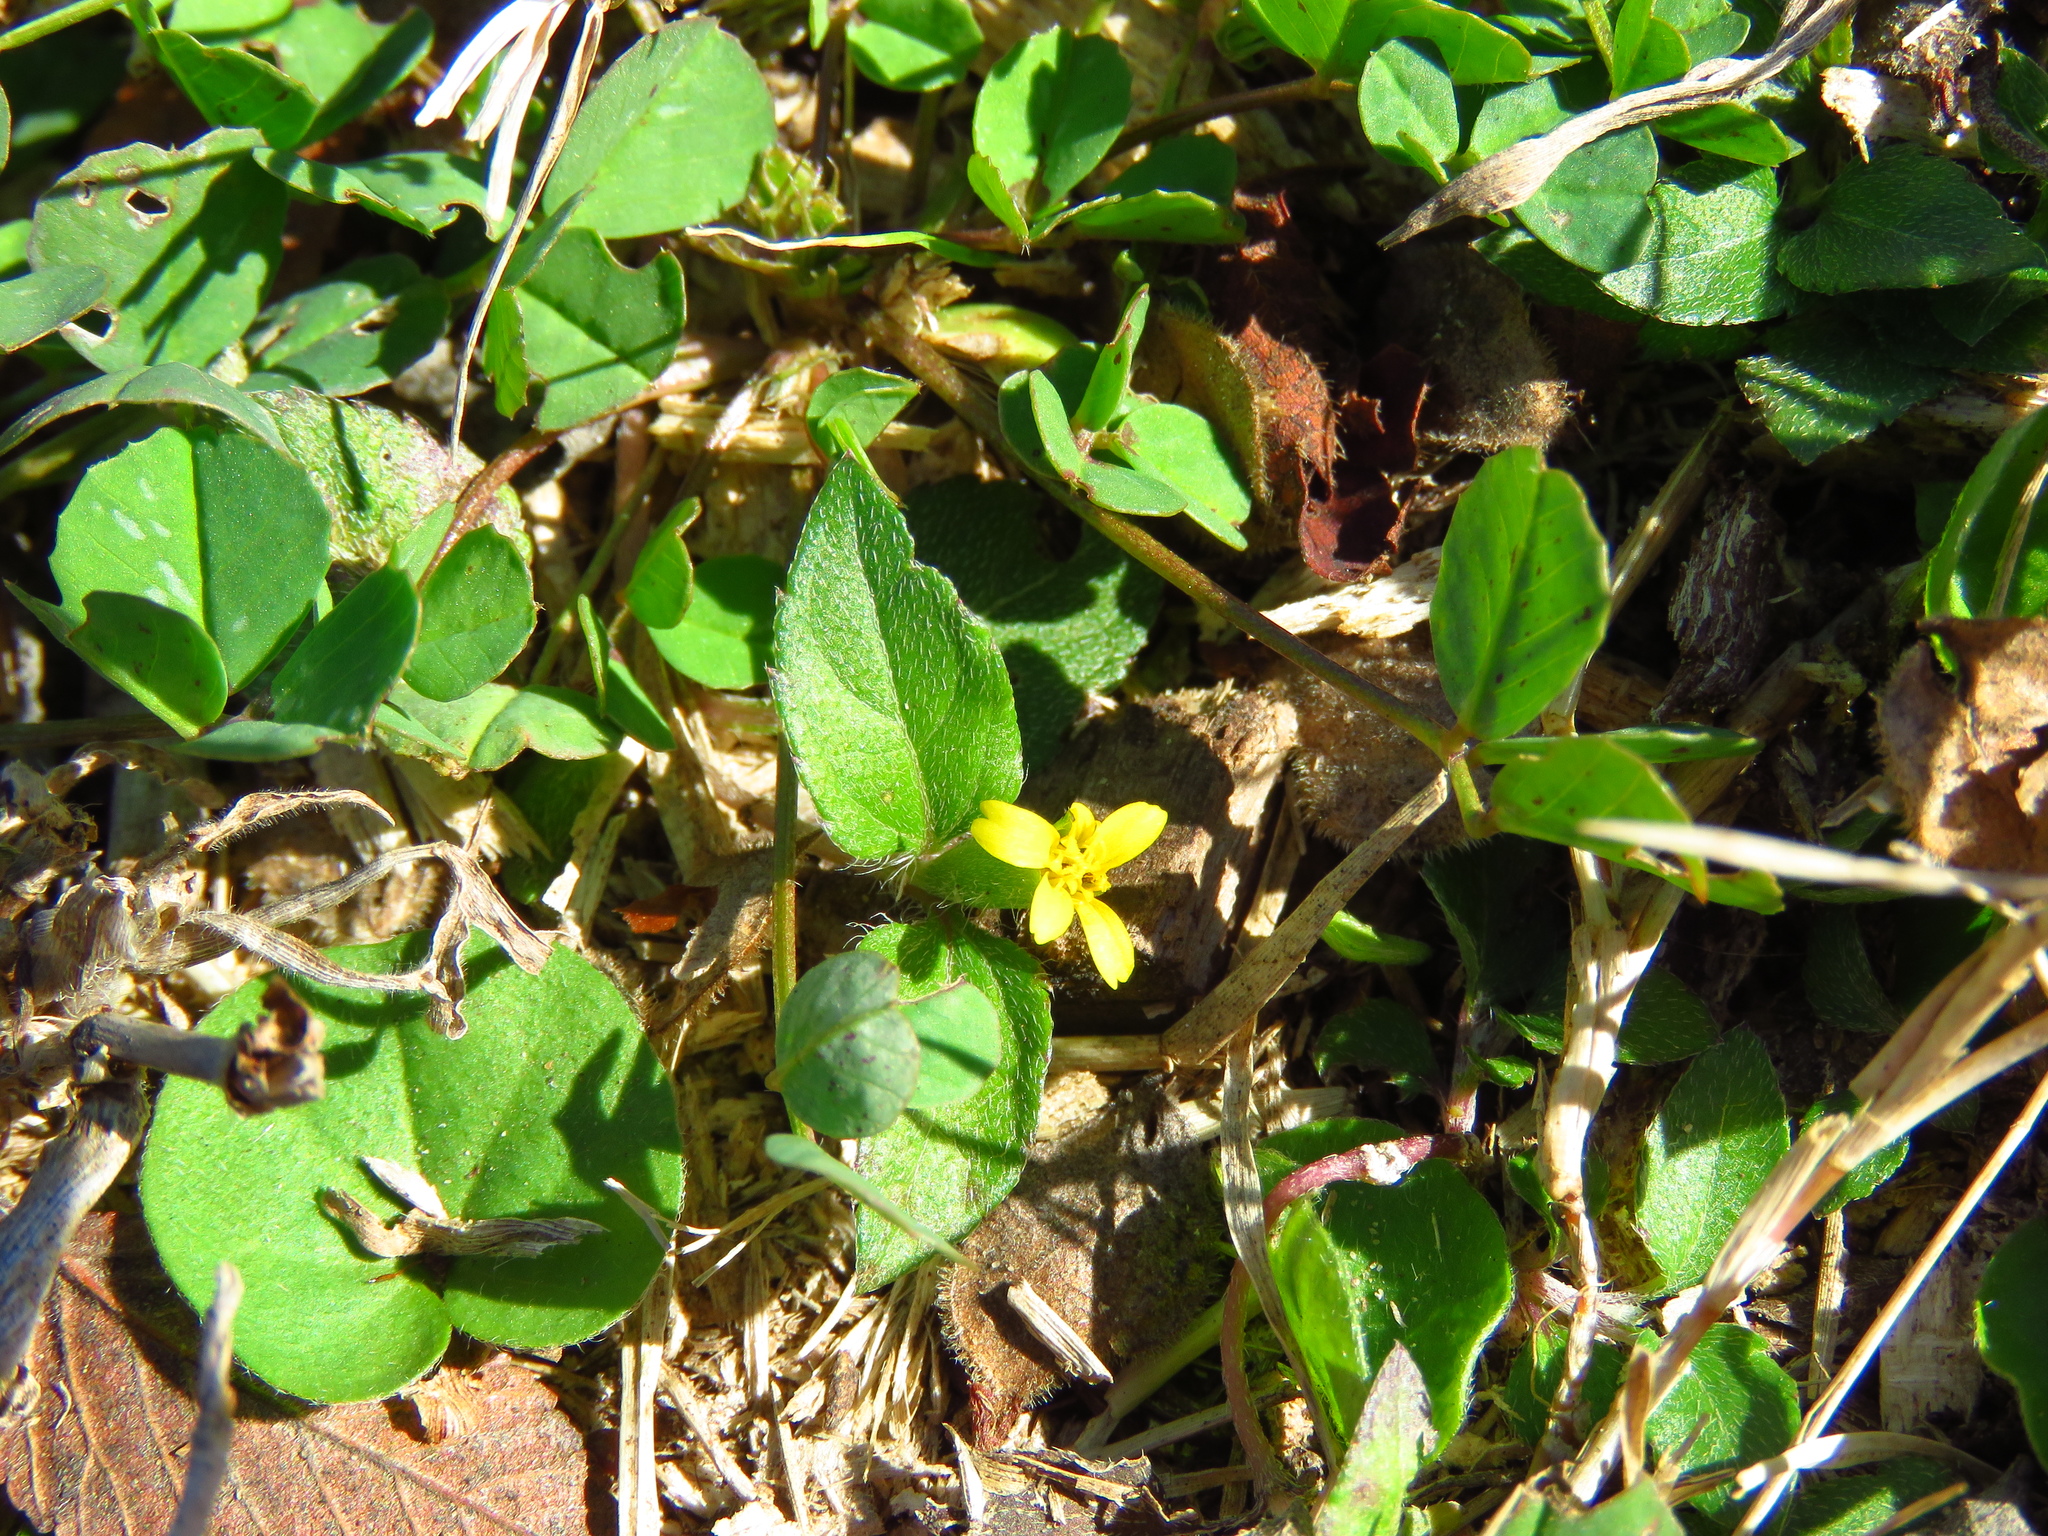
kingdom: Plantae
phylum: Tracheophyta
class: Magnoliopsida
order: Asterales
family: Asteraceae
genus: Calyptocarpus
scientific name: Calyptocarpus vialis
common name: Straggler daisy
